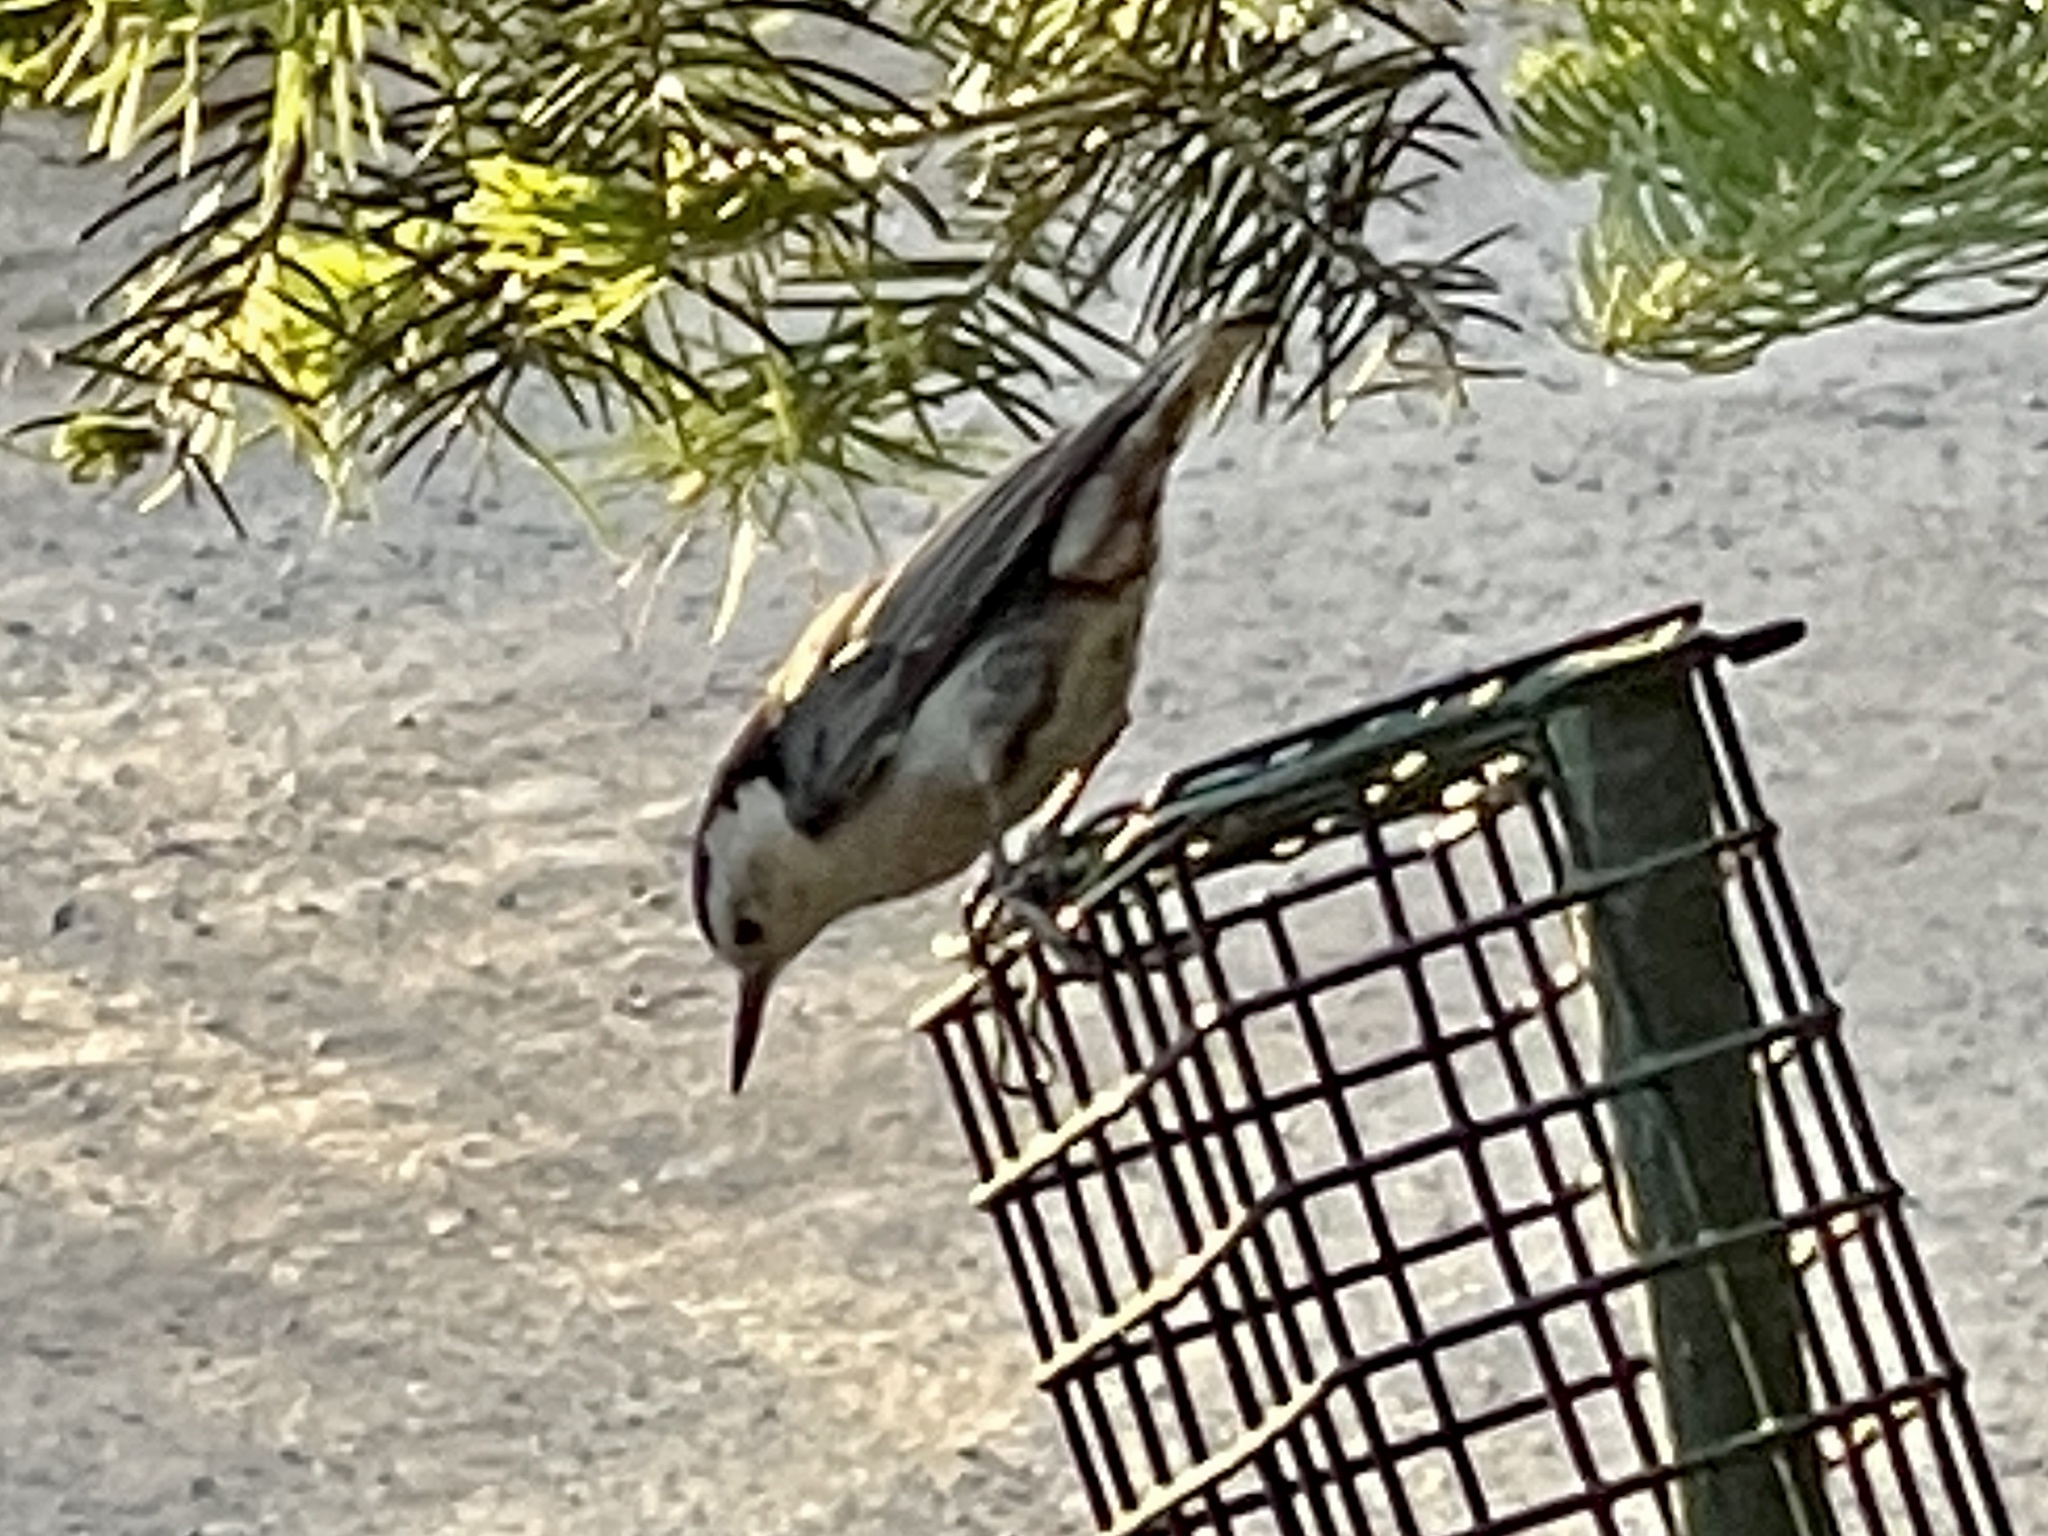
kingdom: Animalia
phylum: Chordata
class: Aves
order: Passeriformes
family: Sittidae
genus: Sitta
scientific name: Sitta carolinensis
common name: White-breasted nuthatch
